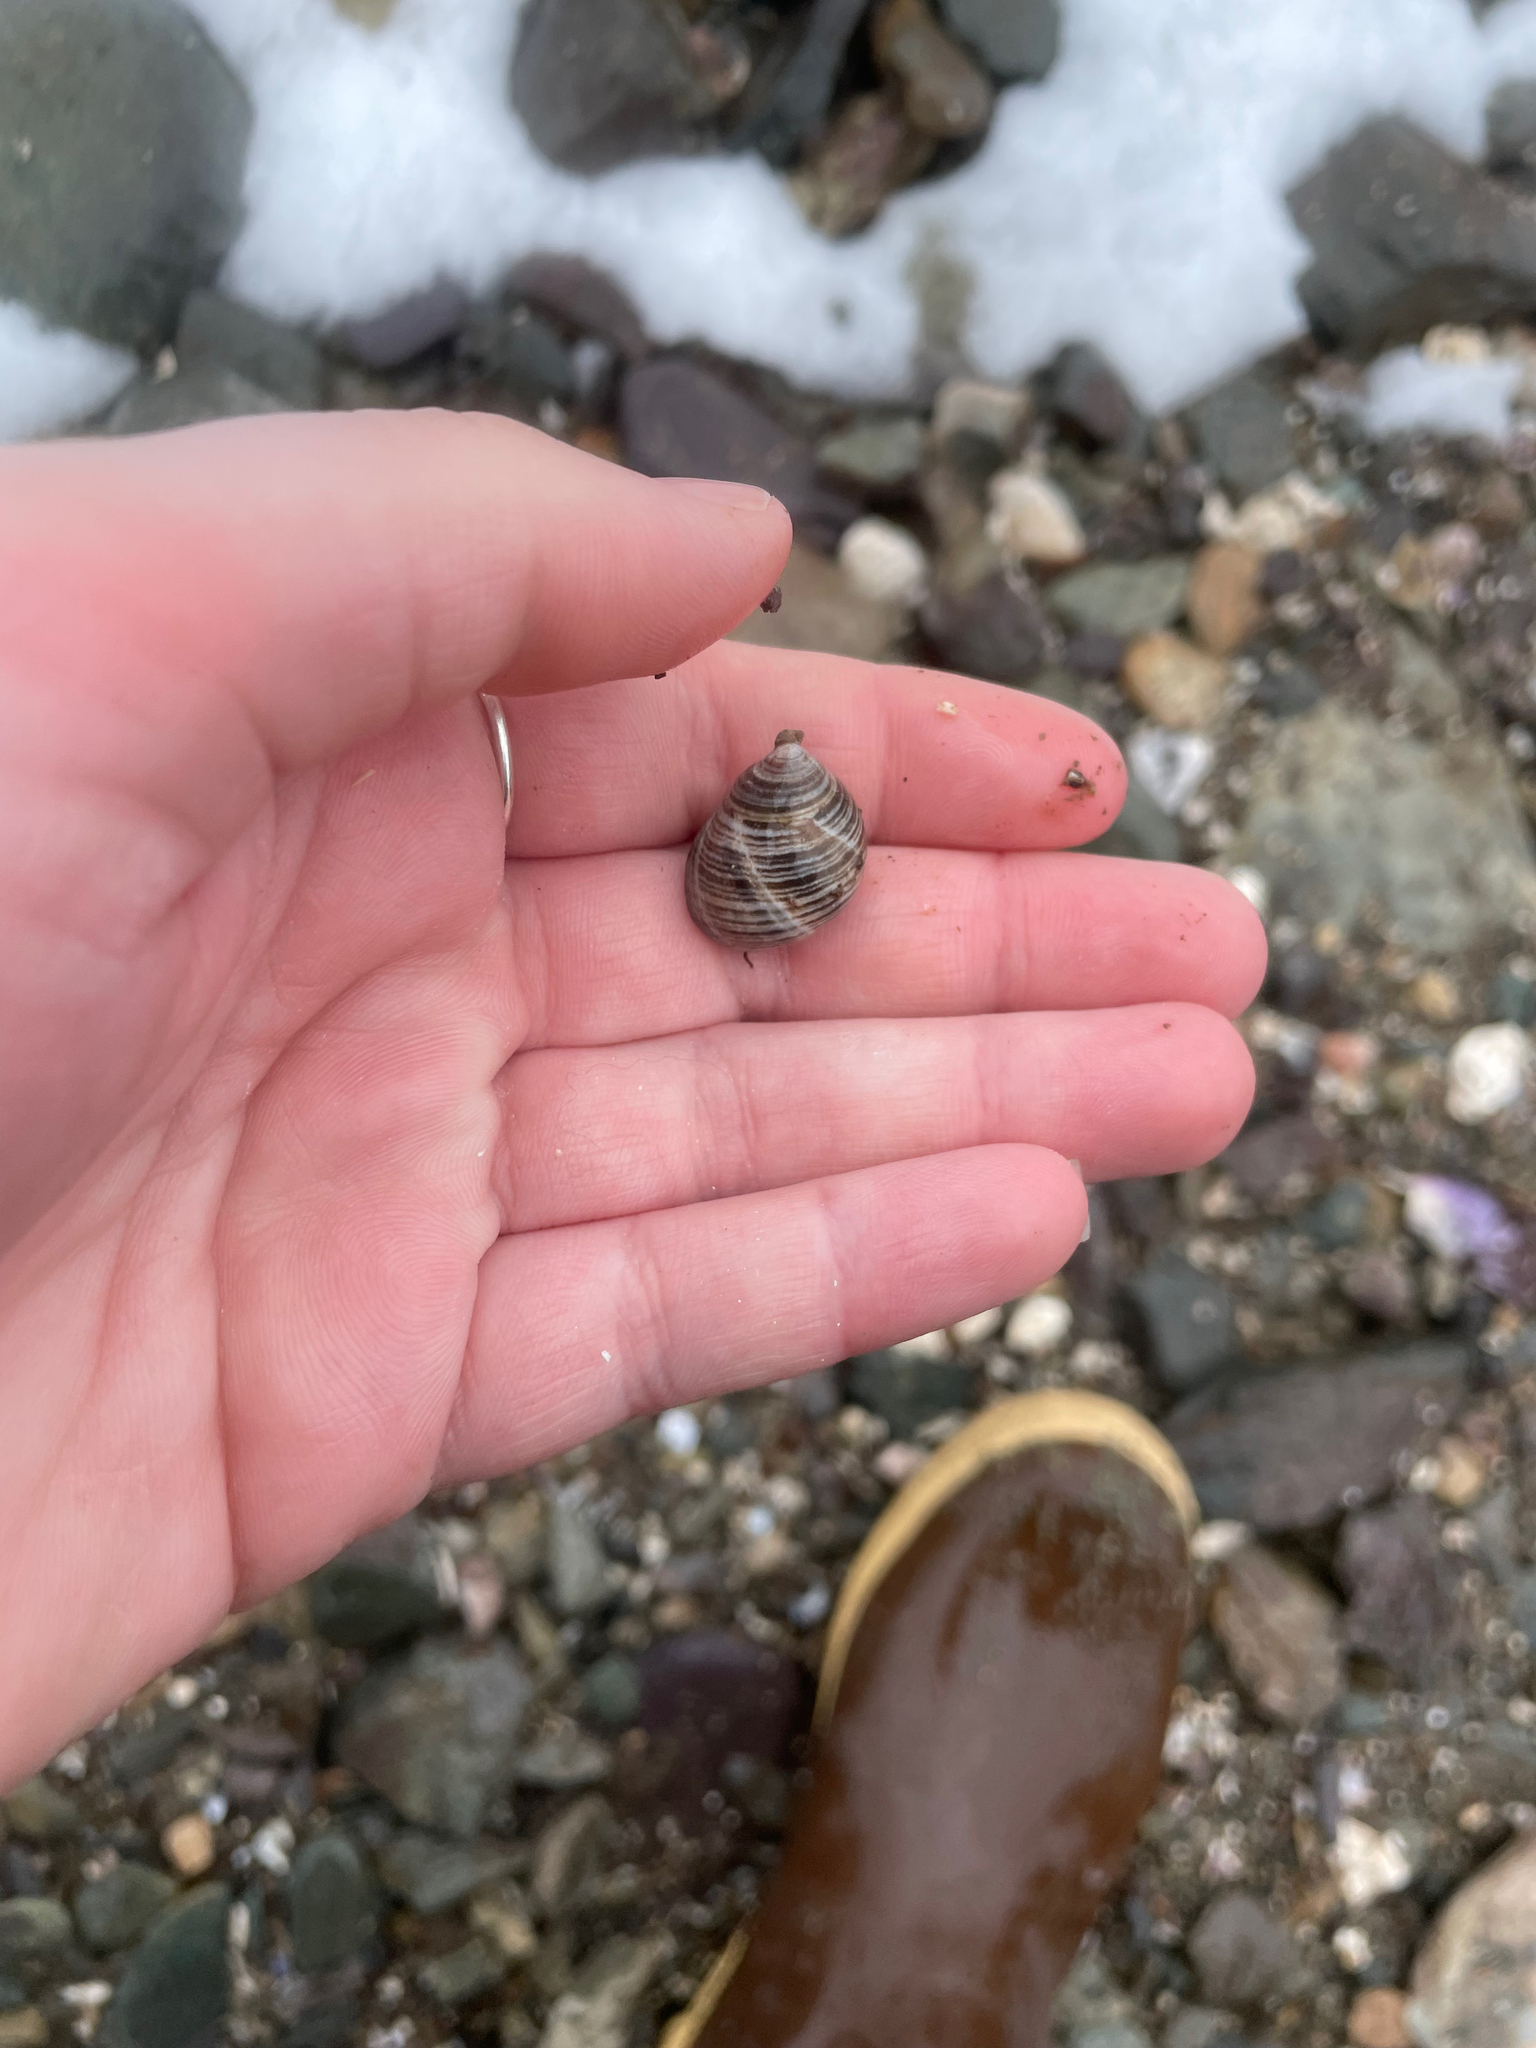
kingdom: Animalia
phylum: Mollusca
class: Gastropoda
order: Littorinimorpha
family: Littorinidae
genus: Littorina
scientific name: Littorina littorea
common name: Common periwinkle
